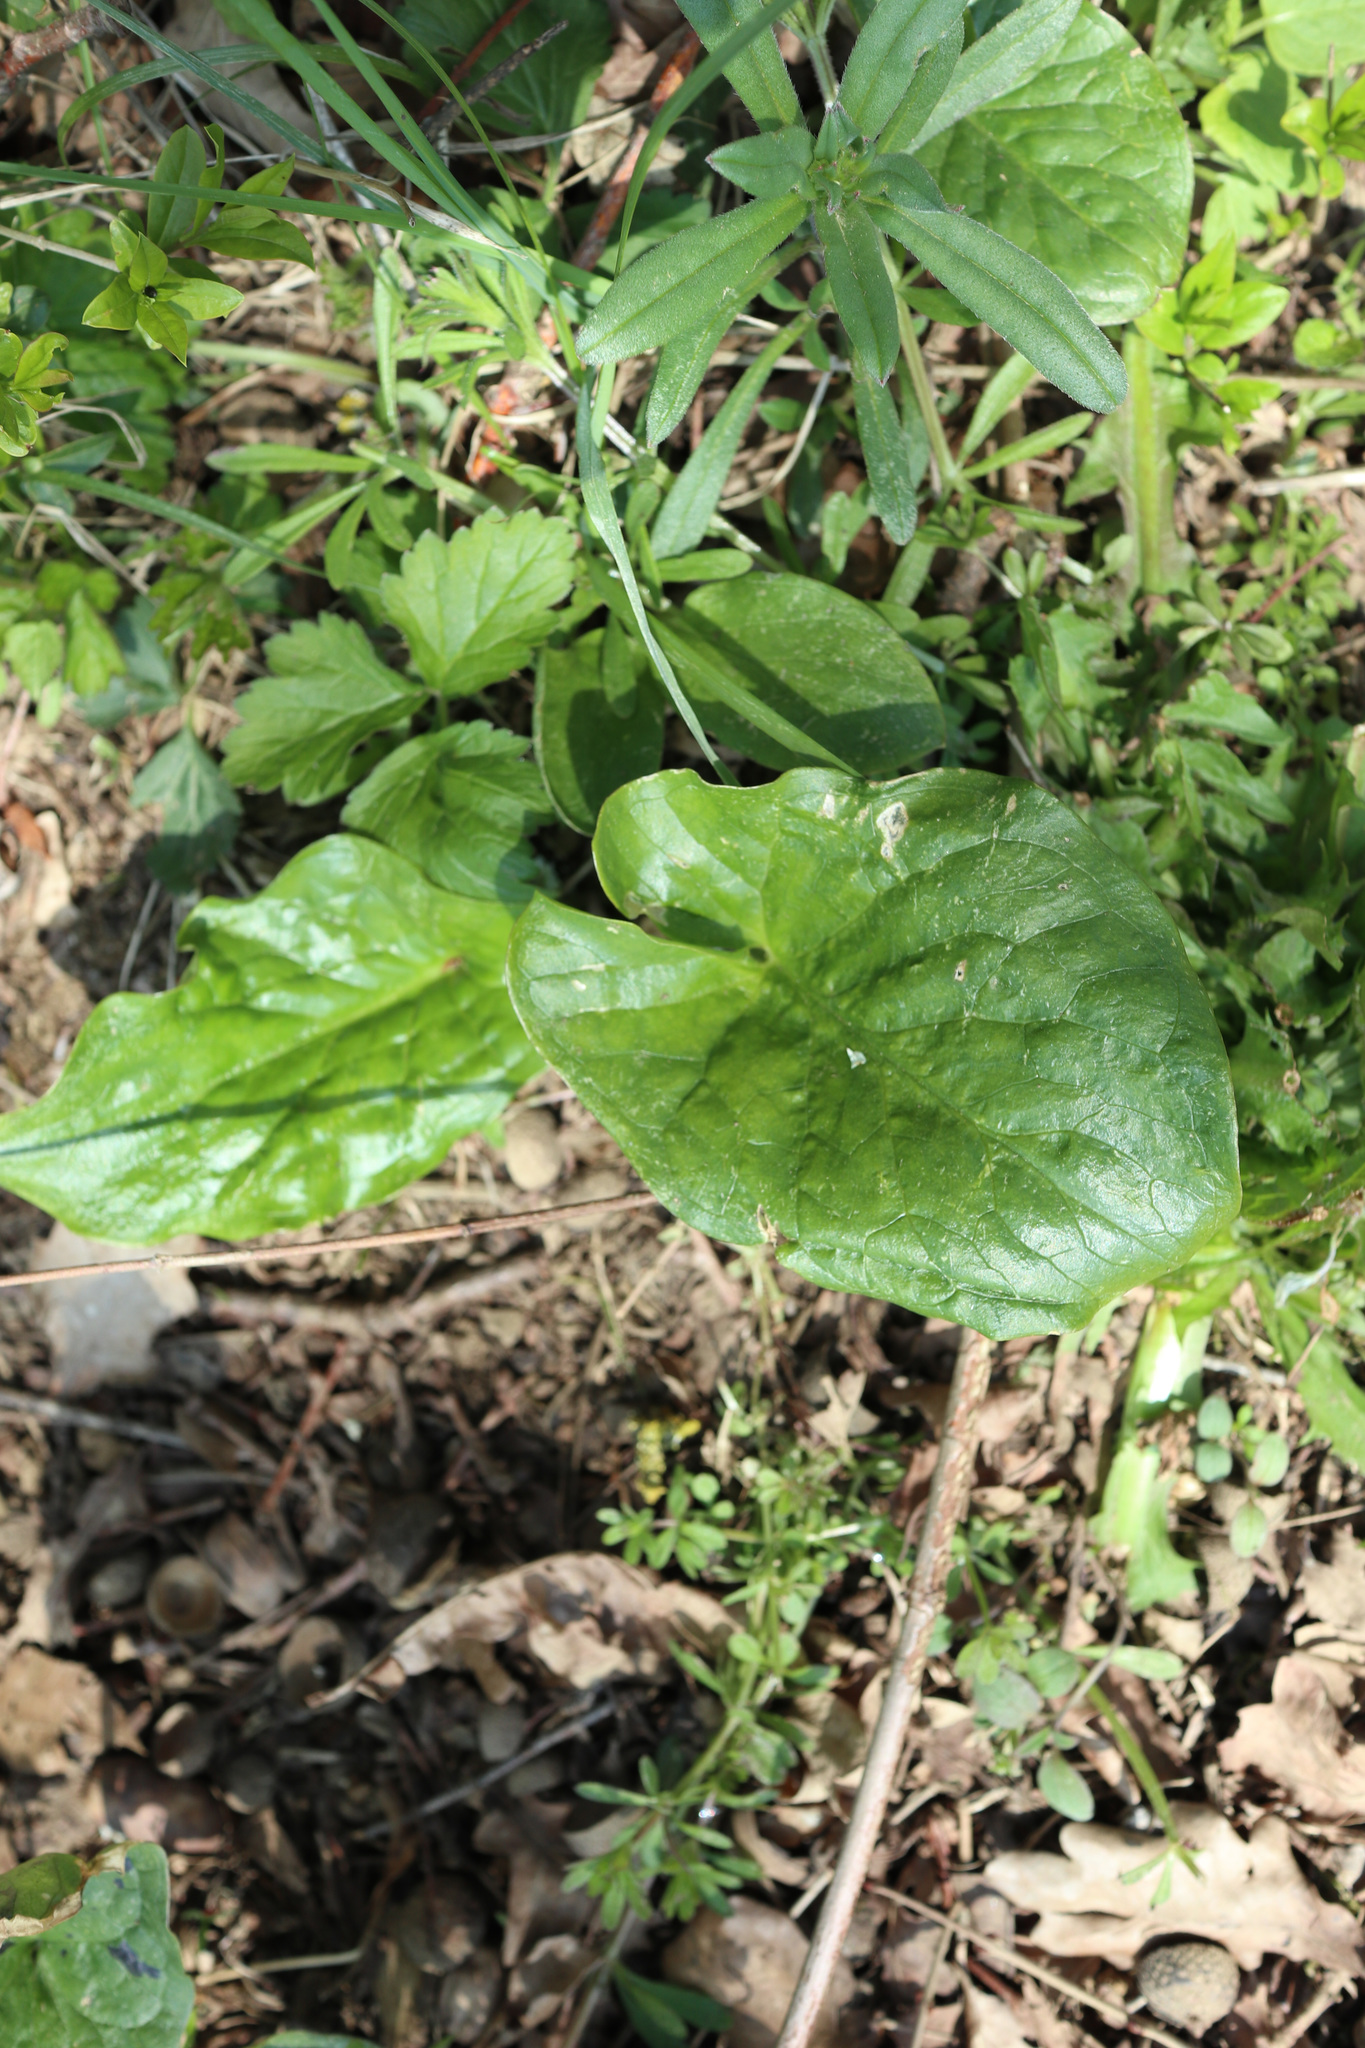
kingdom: Plantae
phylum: Tracheophyta
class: Liliopsida
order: Alismatales
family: Araceae
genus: Arum
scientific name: Arum maculatum
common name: Lords-and-ladies
